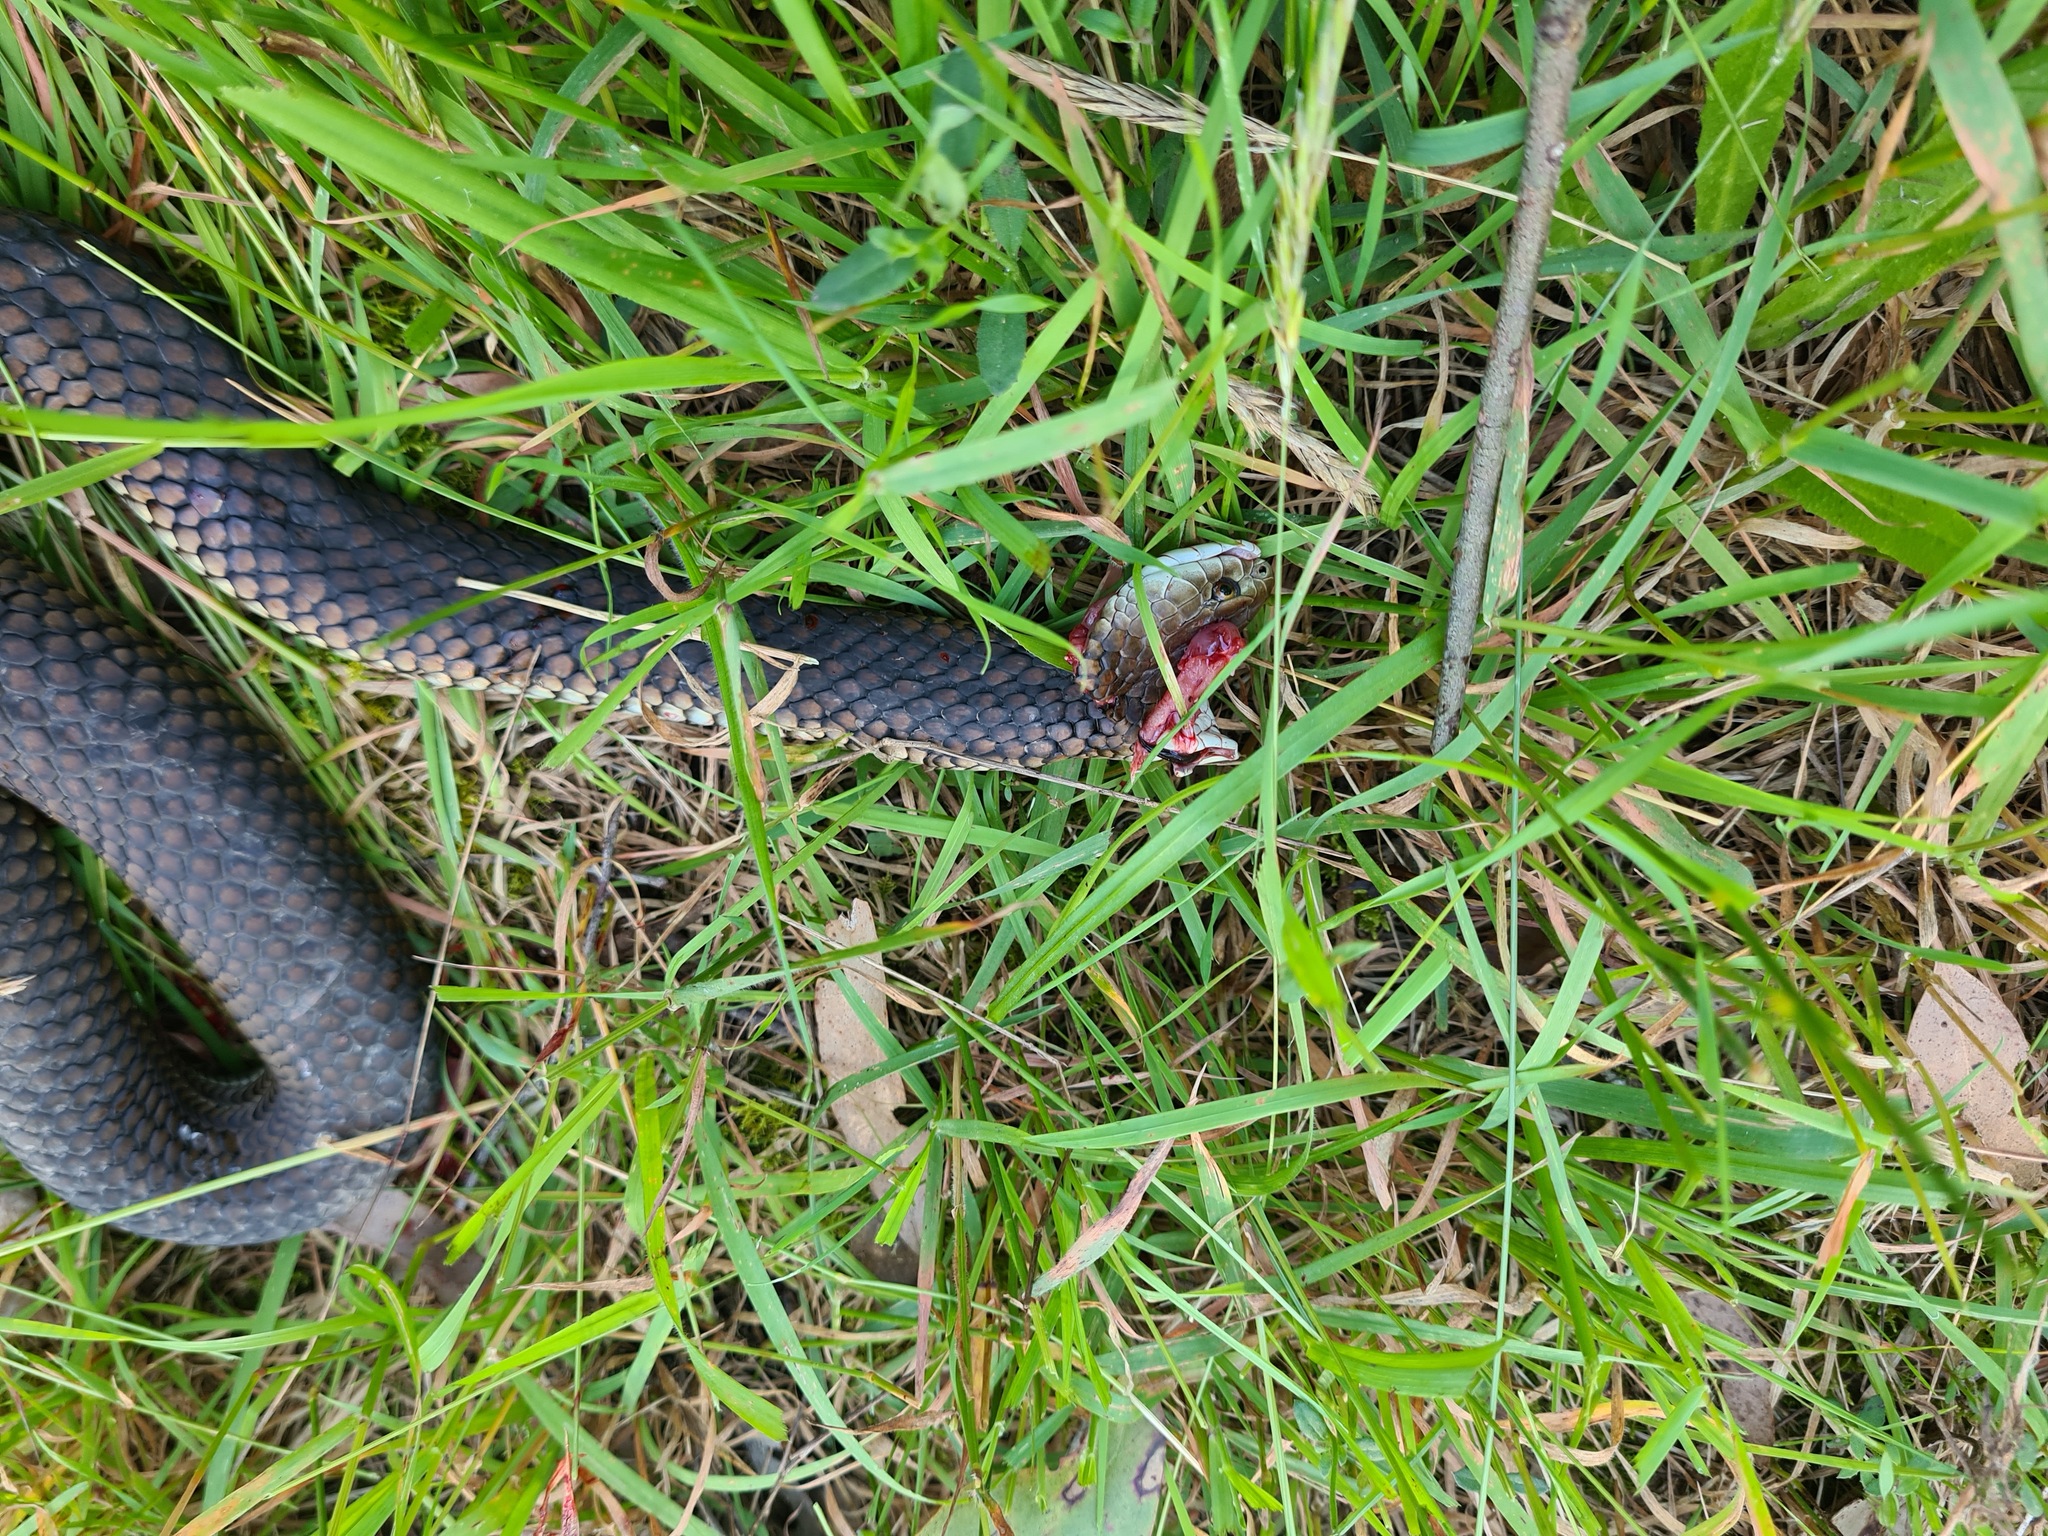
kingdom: Animalia
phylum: Chordata
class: Squamata
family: Elapidae
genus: Austrelaps
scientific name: Austrelaps superbus
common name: Copperhead snake
